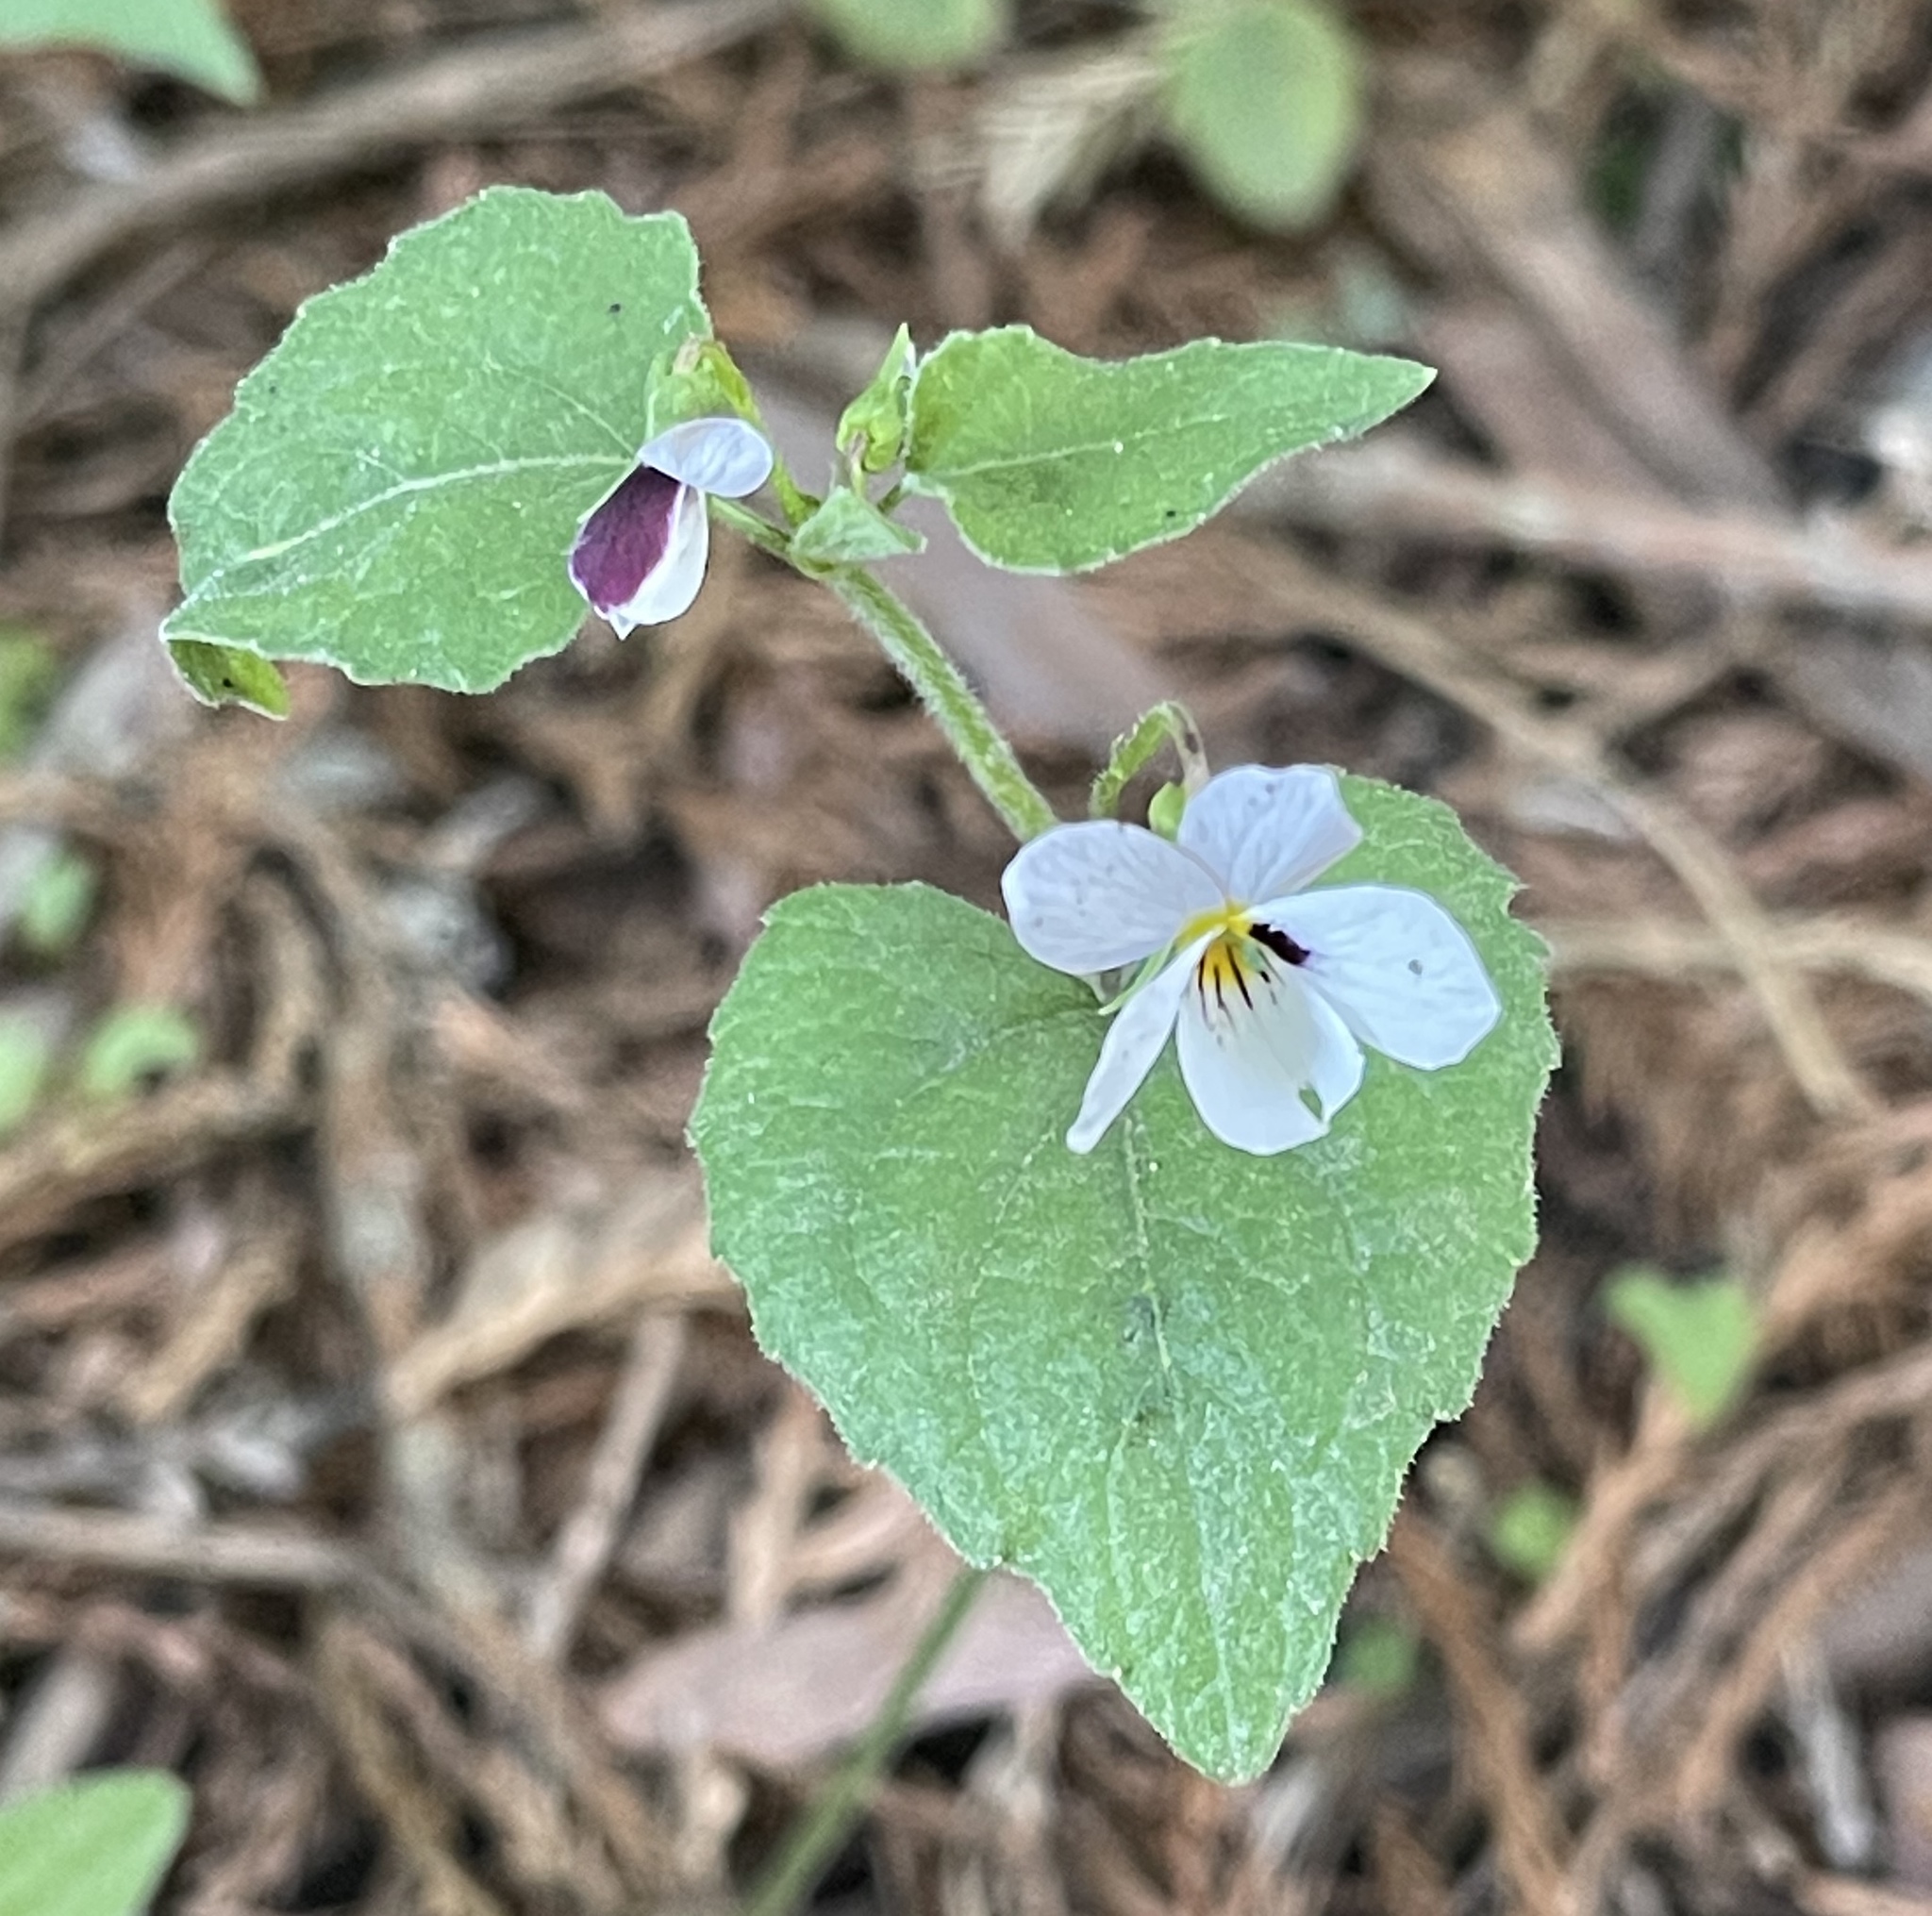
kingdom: Plantae
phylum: Tracheophyta
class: Magnoliopsida
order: Malpighiales
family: Violaceae
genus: Viola
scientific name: Viola ocellata
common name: Western heart's ease
